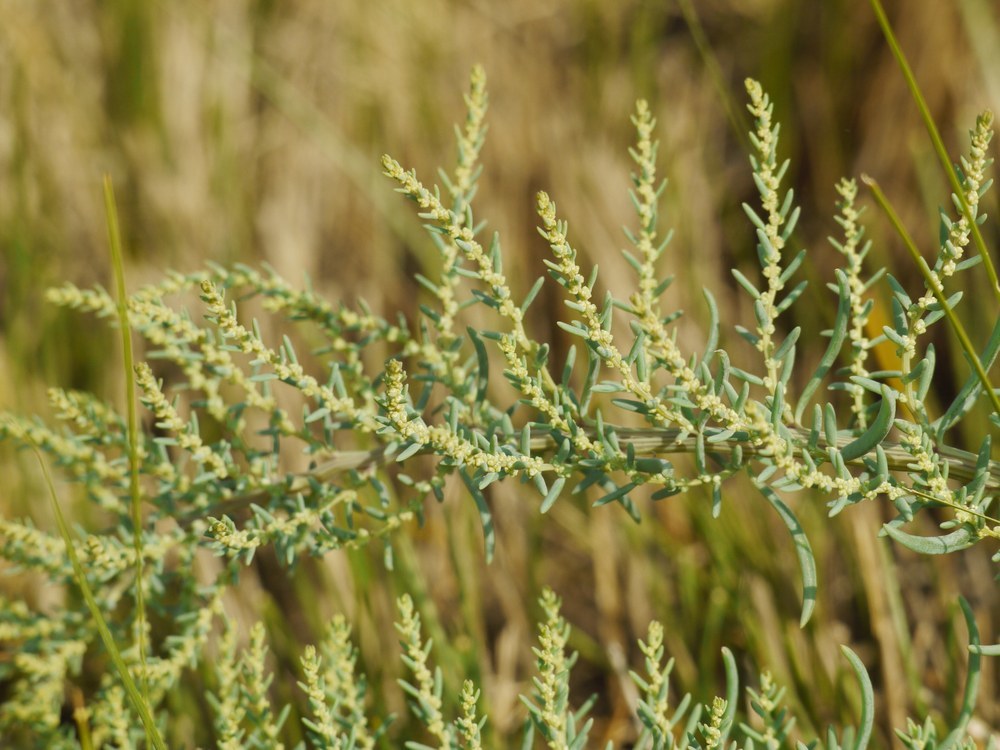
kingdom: Plantae
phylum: Tracheophyta
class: Magnoliopsida
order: Caryophyllales
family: Amaranthaceae
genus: Suaeda
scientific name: Suaeda prostrata
